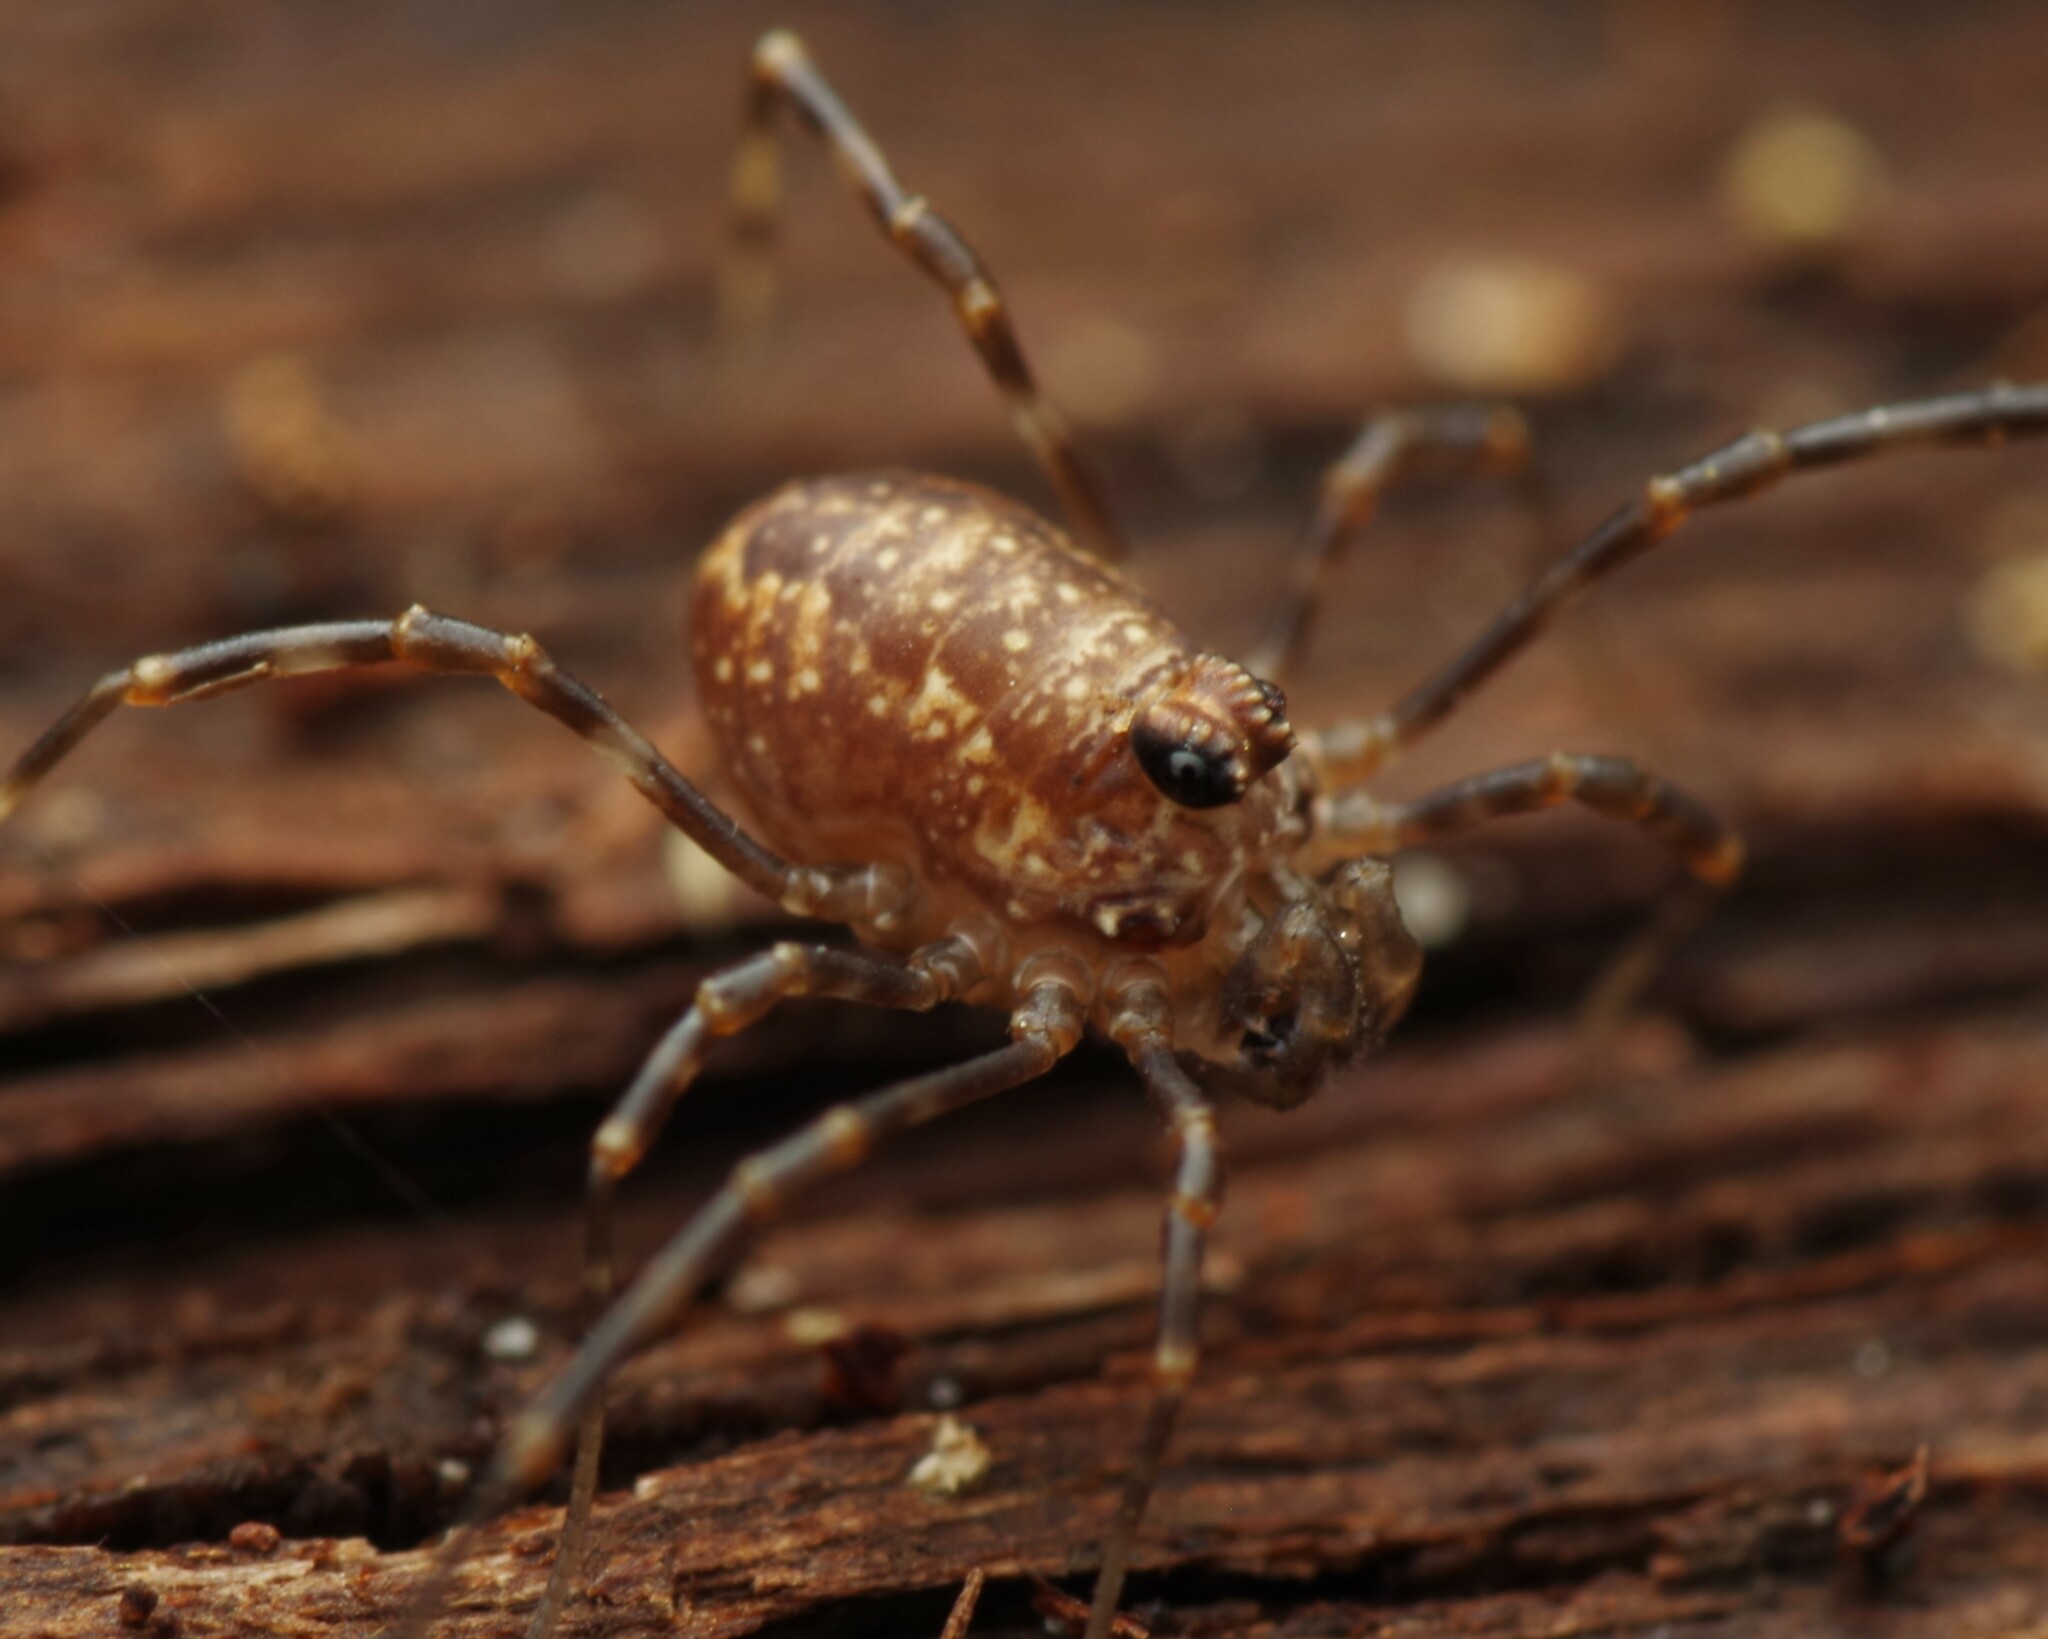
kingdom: Animalia
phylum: Arthropoda
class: Arachnida
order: Opiliones
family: Phalangiidae
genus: Rilaena
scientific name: Rilaena triangularis
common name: Spring harvestman
